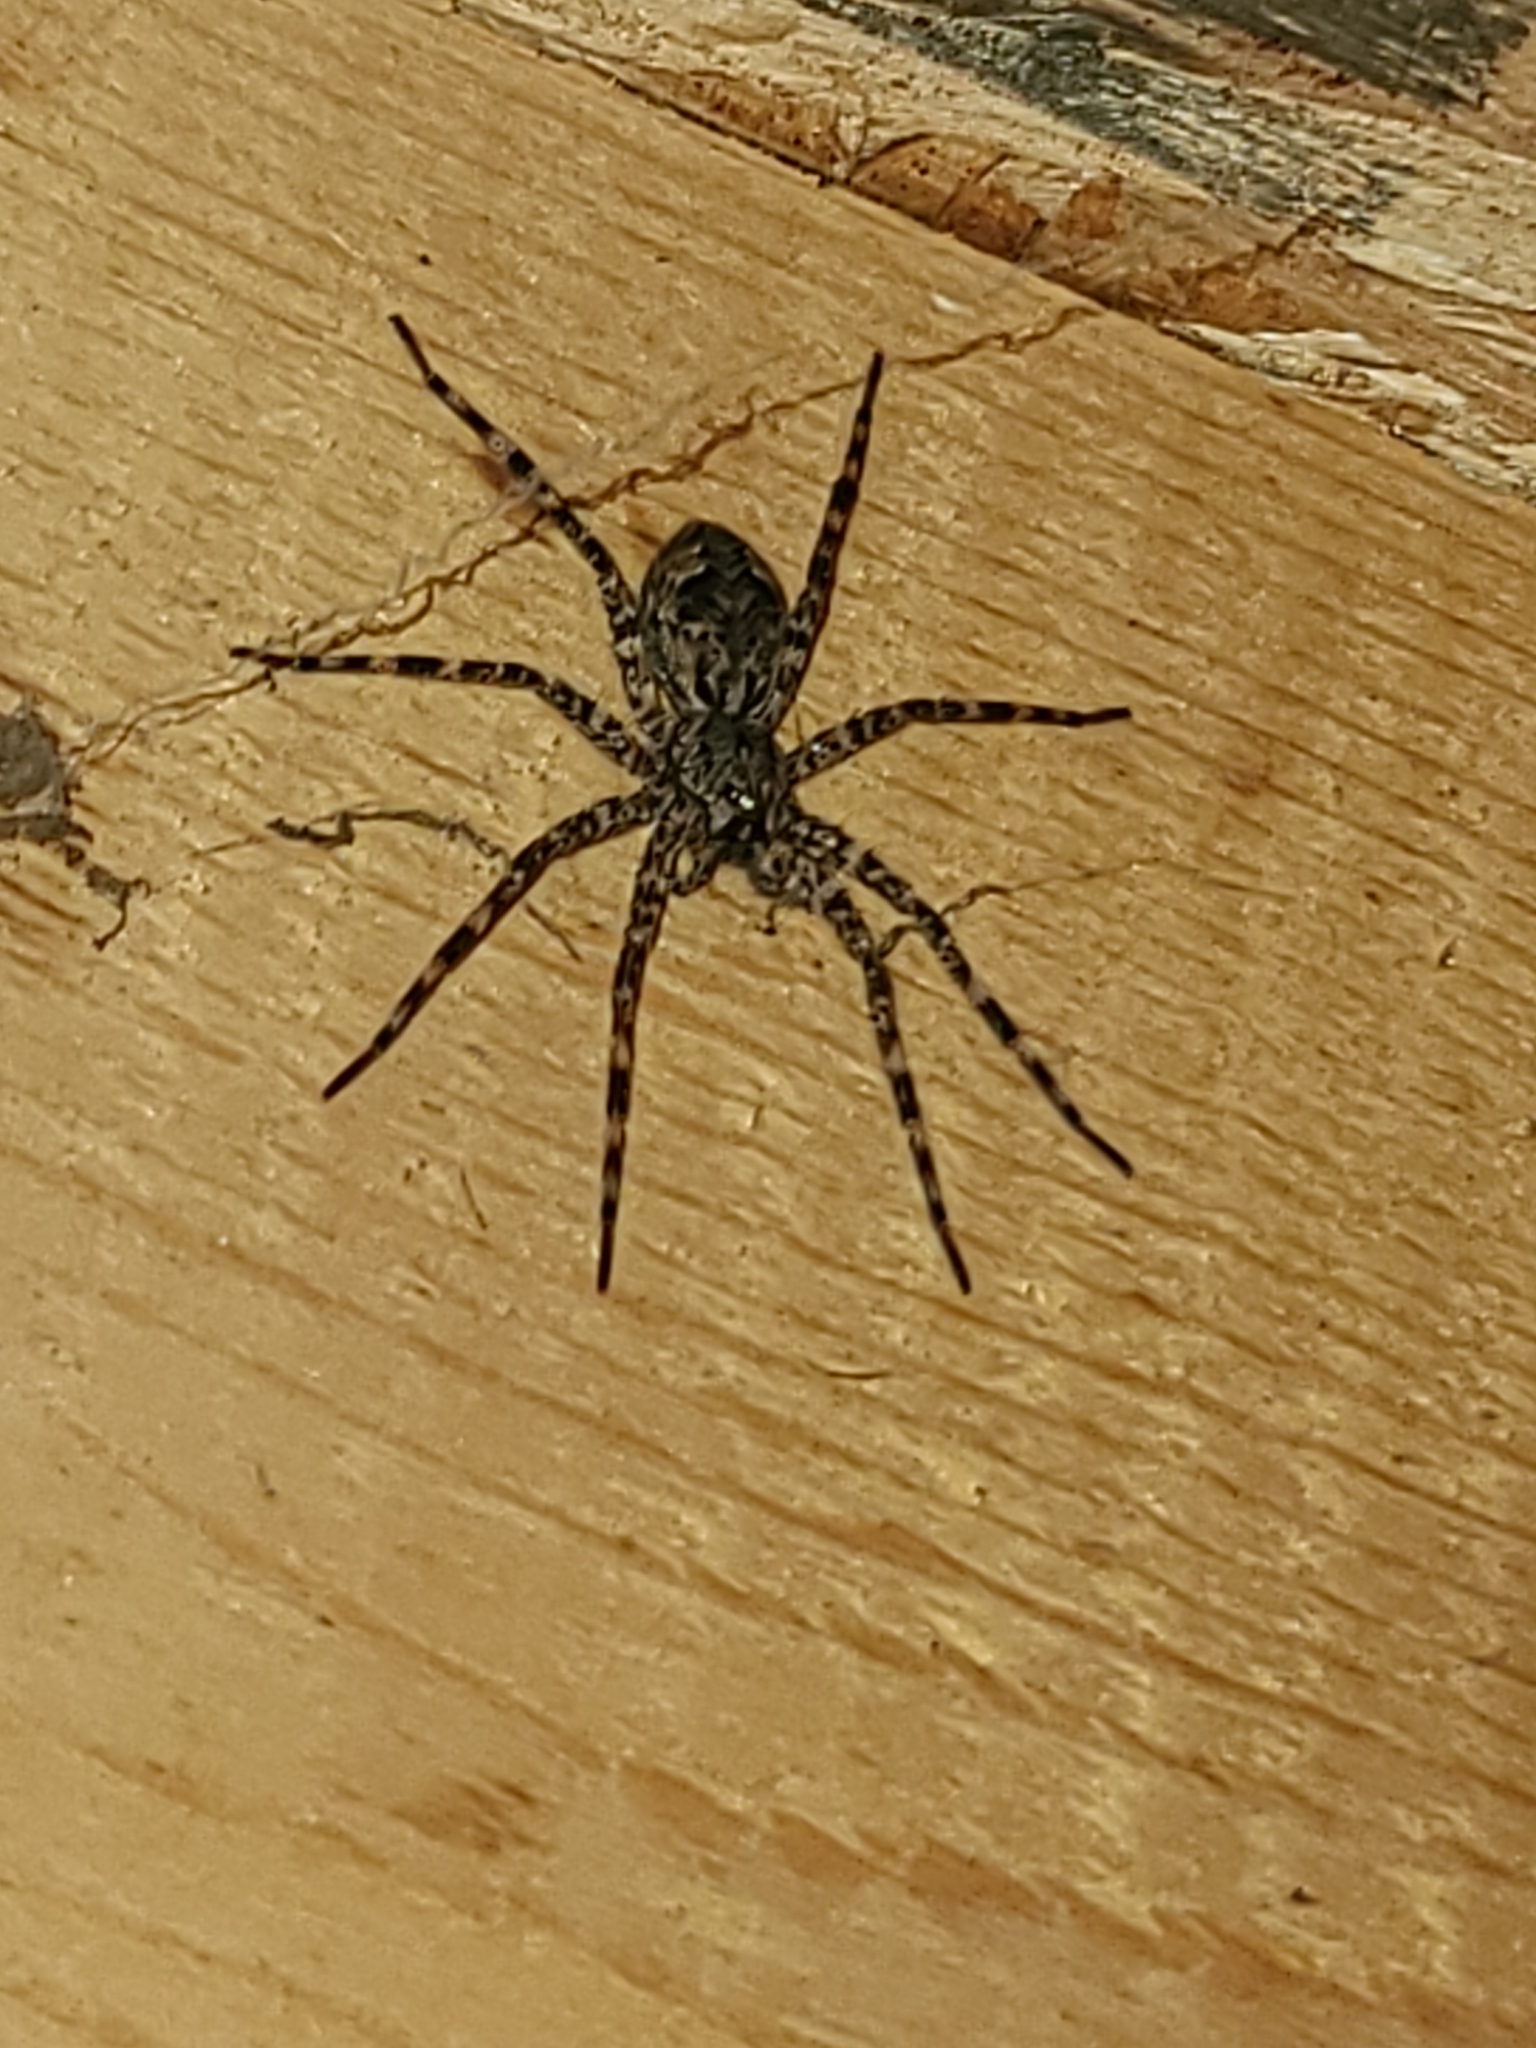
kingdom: Animalia
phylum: Arthropoda
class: Arachnida
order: Araneae
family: Pisauridae
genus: Dolomedes
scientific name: Dolomedes tenebrosus
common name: Dark fishing spider
